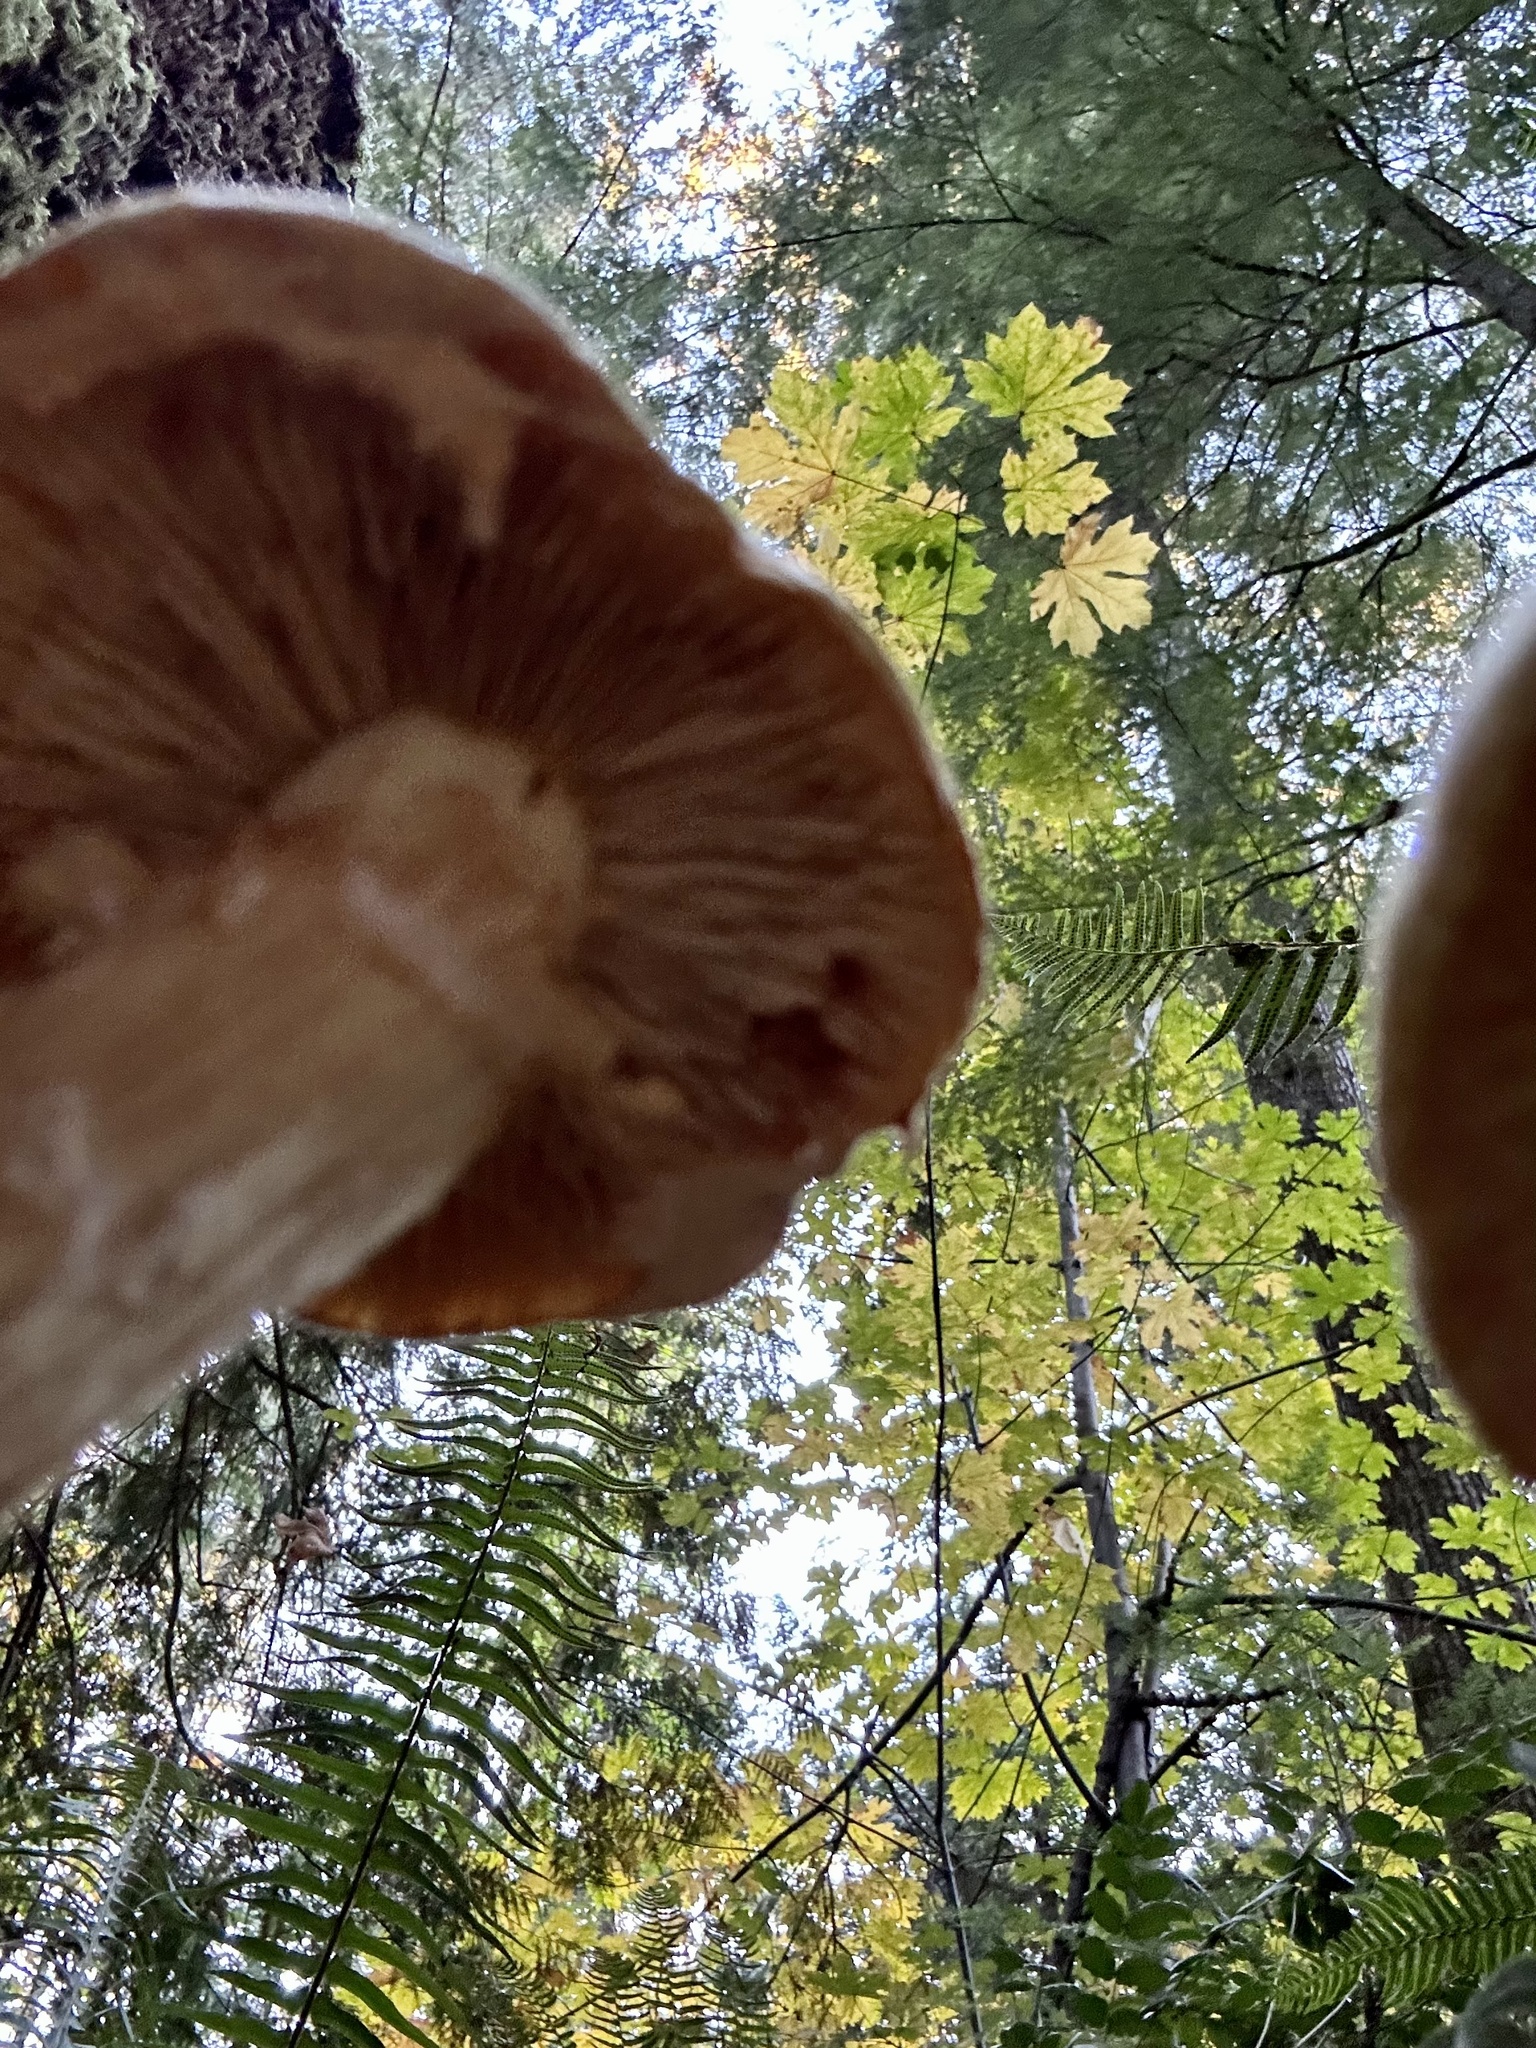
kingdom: Fungi
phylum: Basidiomycota
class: Agaricomycetes
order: Agaricales
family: Hymenogastraceae
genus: Gymnopilus
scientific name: Gymnopilus ventricosus
